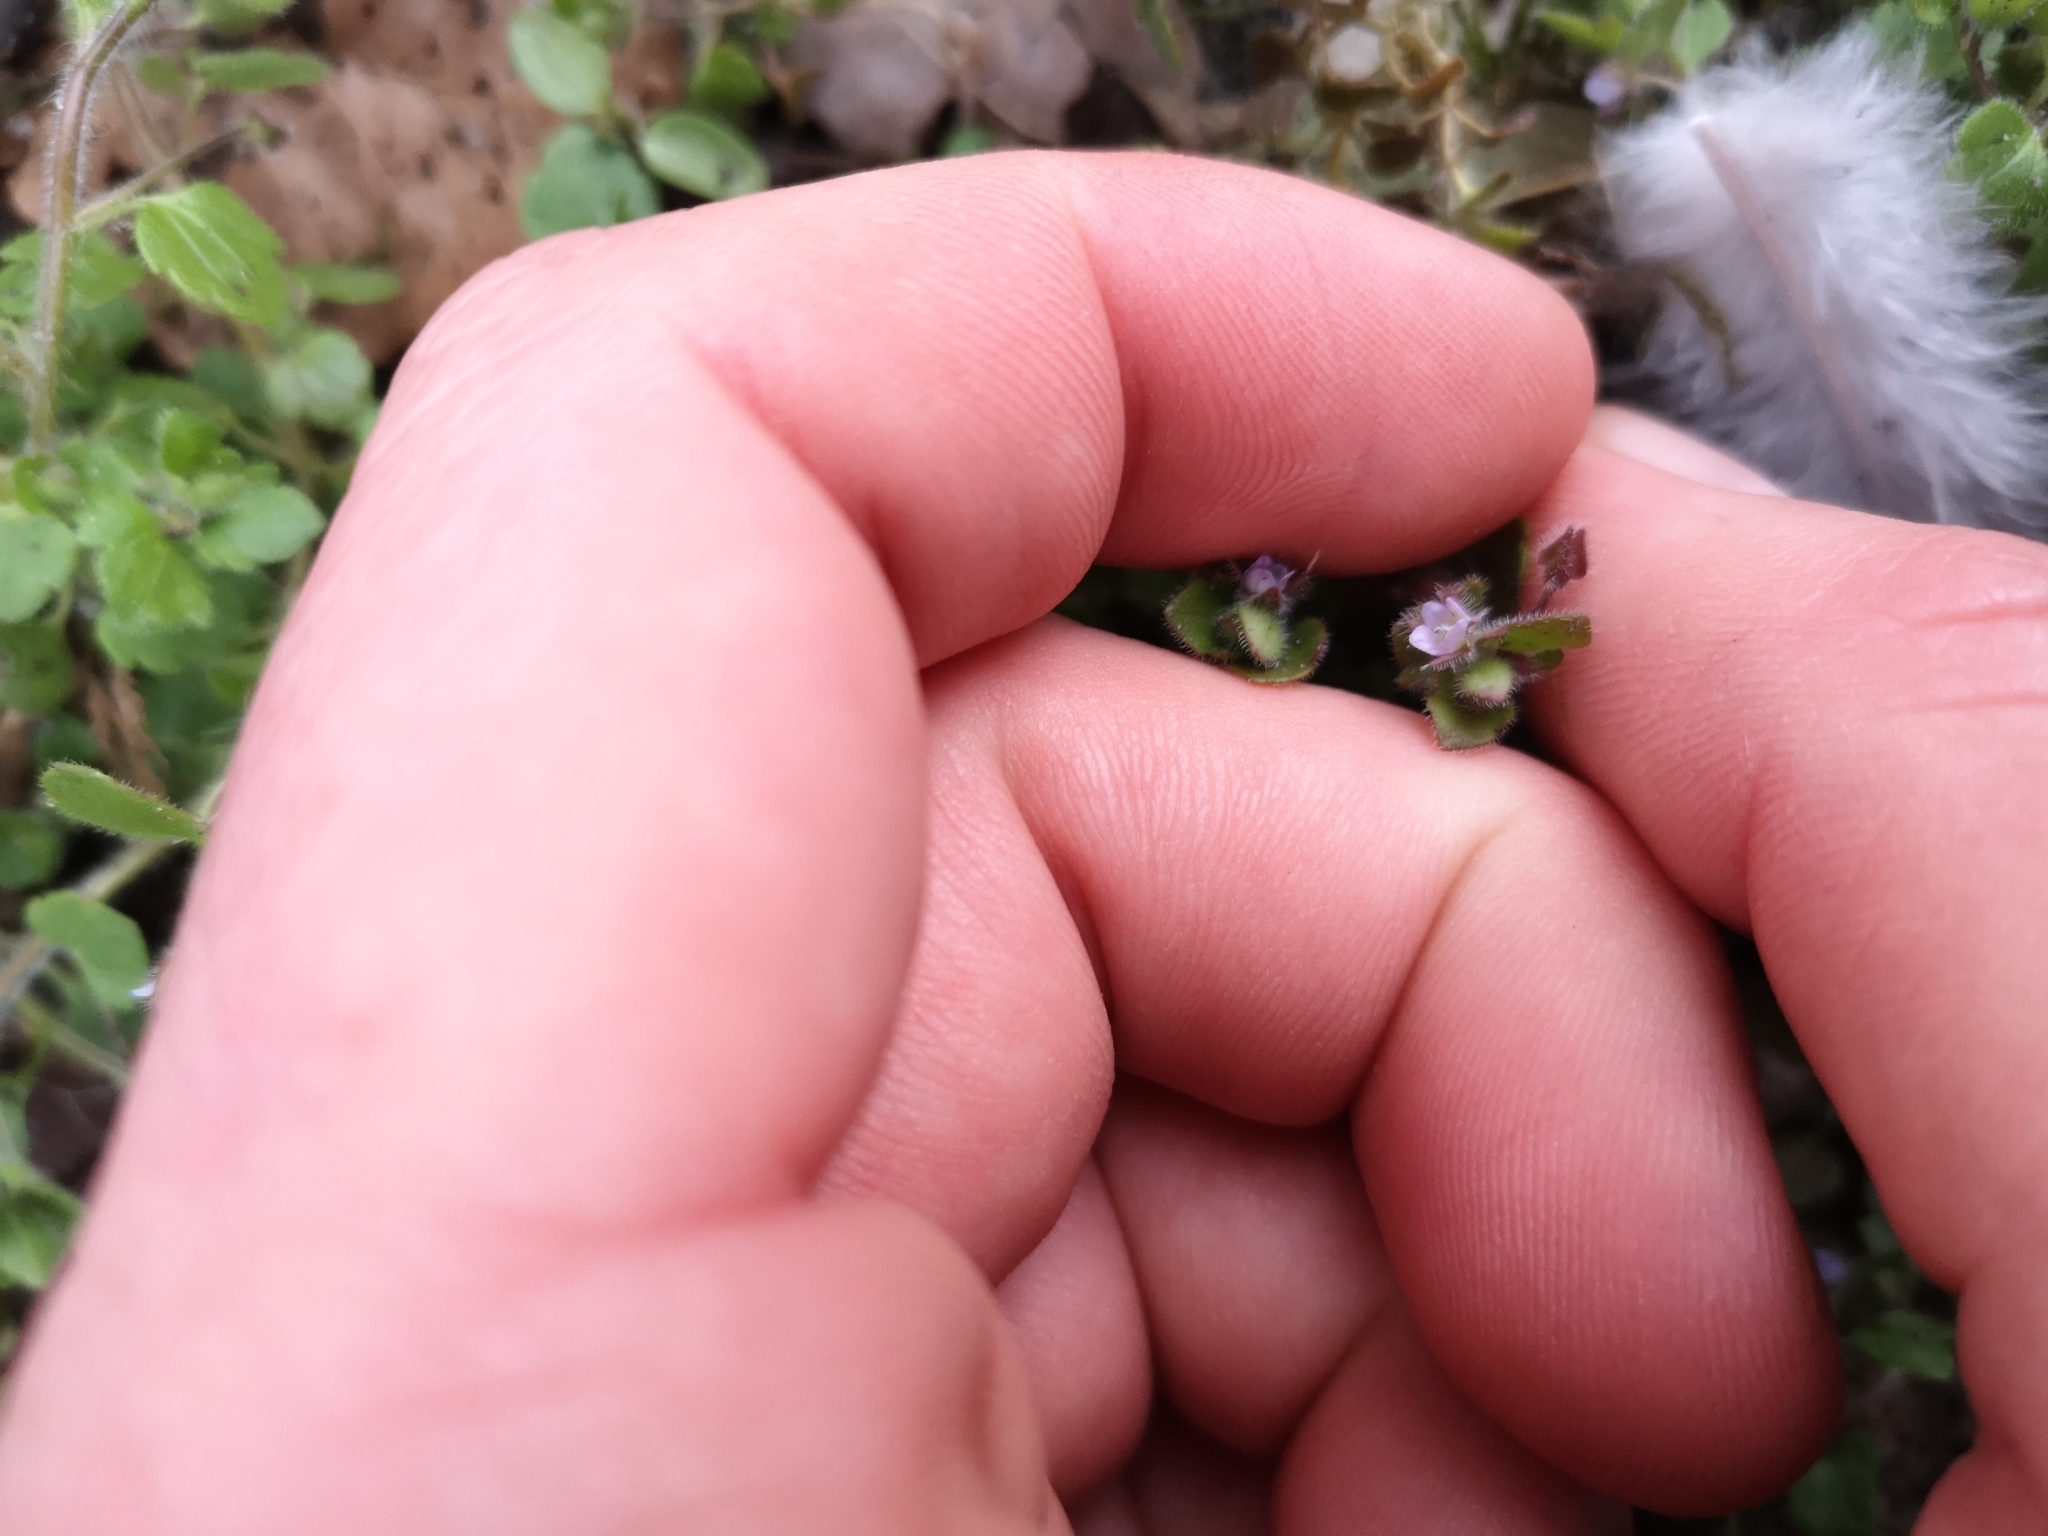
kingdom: Plantae
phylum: Tracheophyta
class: Magnoliopsida
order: Lamiales
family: Plantaginaceae
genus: Veronica
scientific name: Veronica sublobata
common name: False ivy-leaved speedwell
